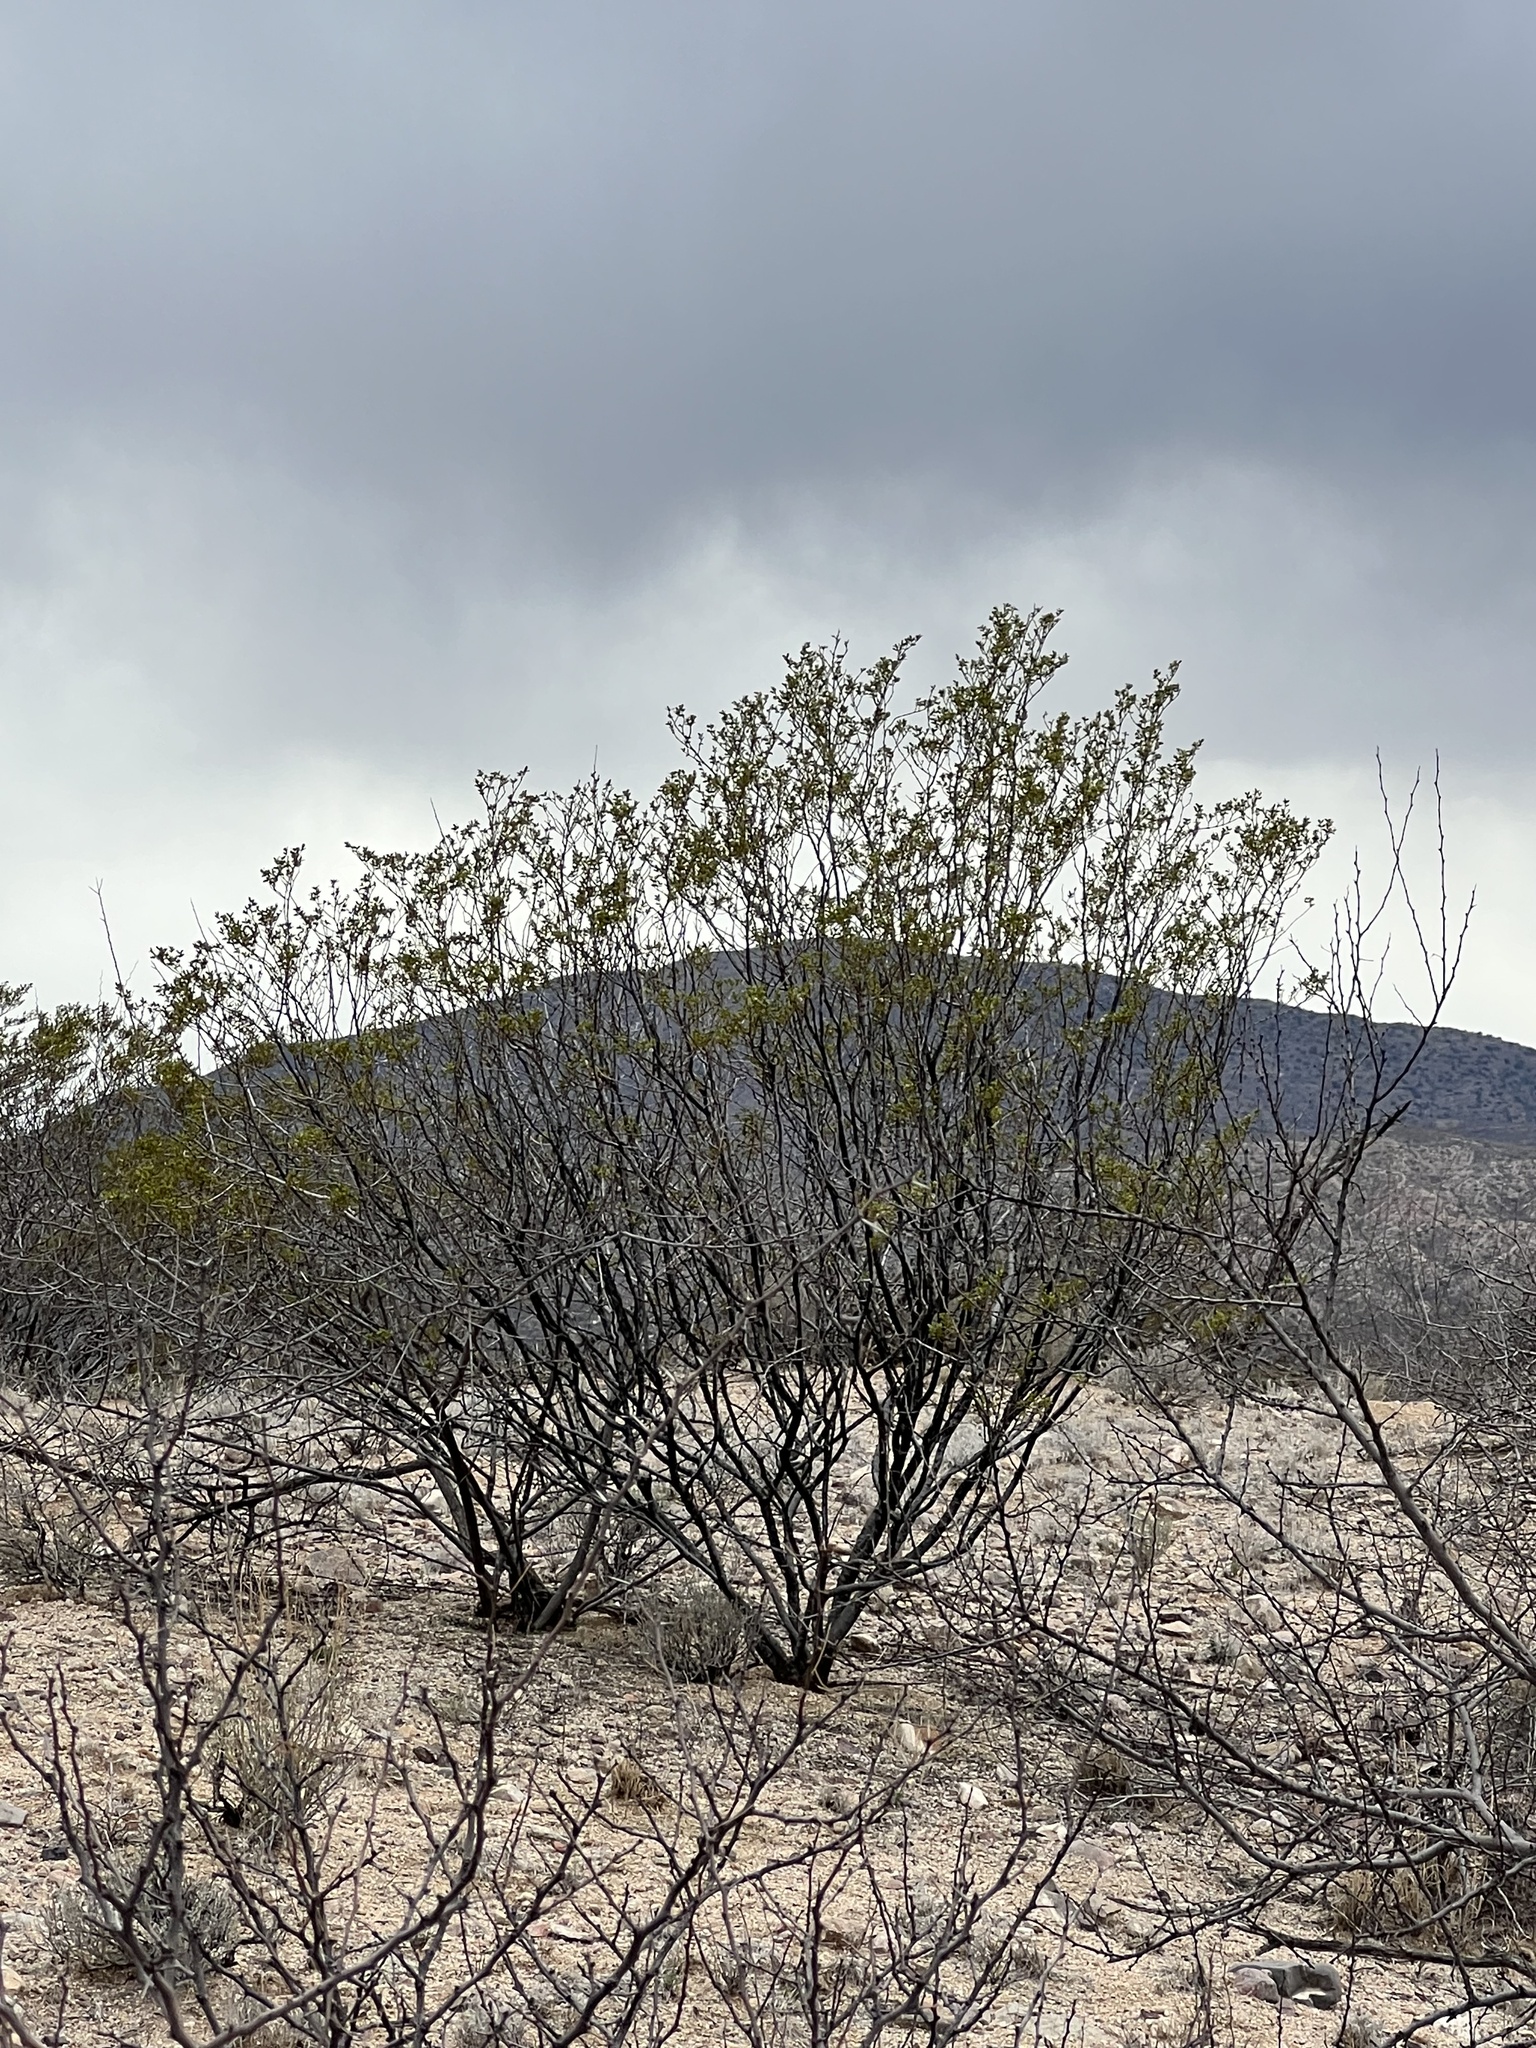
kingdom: Plantae
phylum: Tracheophyta
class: Magnoliopsida
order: Zygophyllales
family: Zygophyllaceae
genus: Larrea
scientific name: Larrea tridentata
